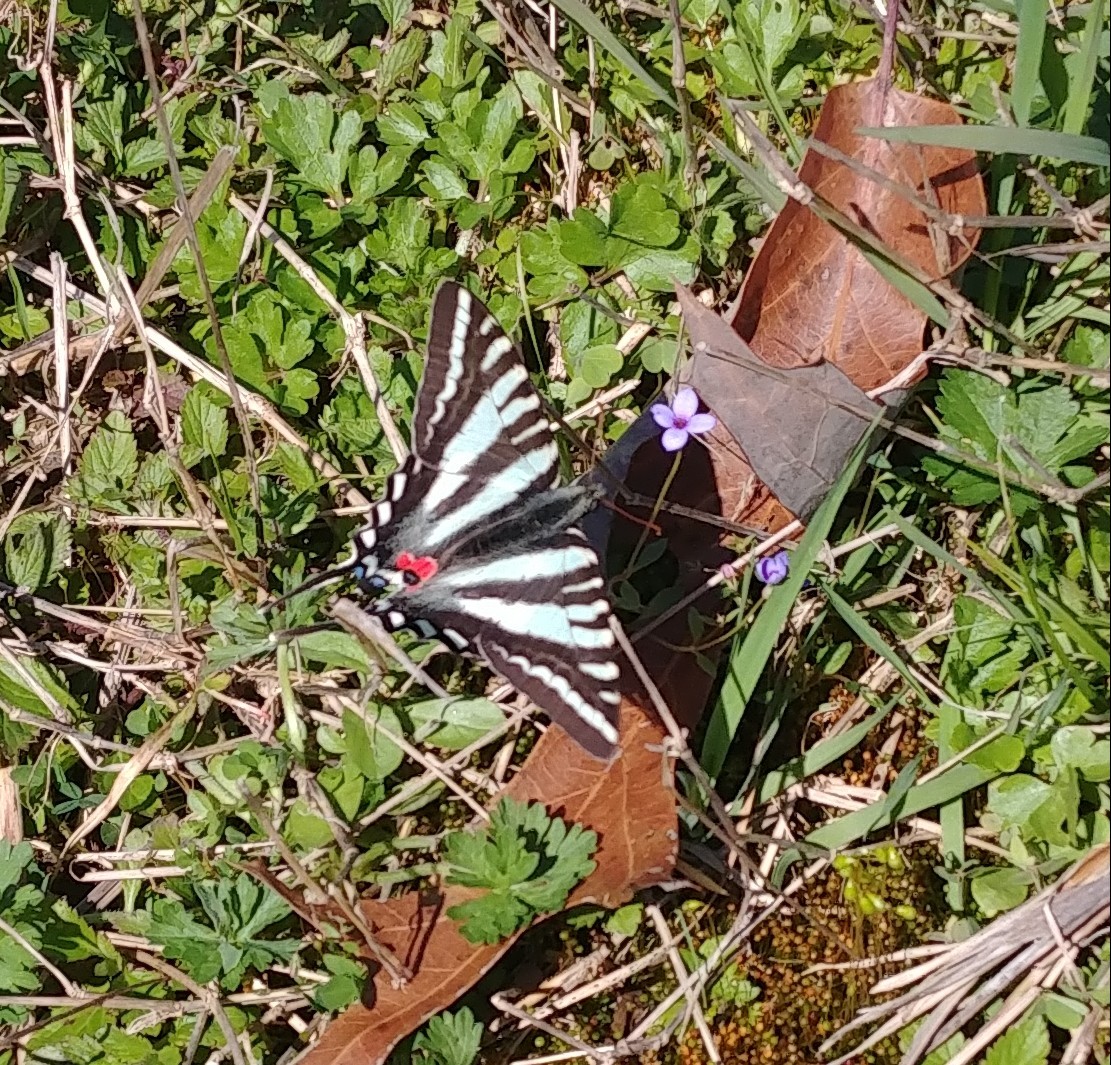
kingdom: Animalia
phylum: Arthropoda
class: Insecta
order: Lepidoptera
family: Papilionidae
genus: Protographium
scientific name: Protographium marcellus
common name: Zebra swallowtail
